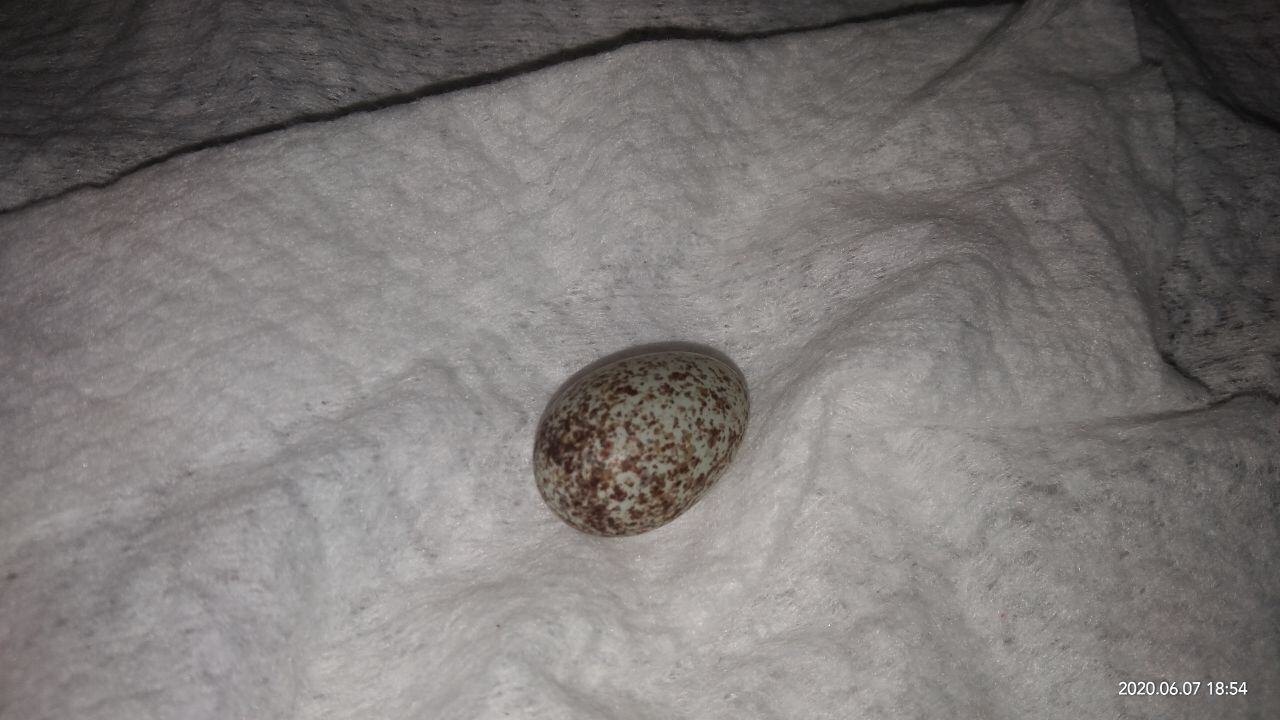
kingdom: Animalia
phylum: Chordata
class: Aves
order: Passeriformes
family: Pycnonotidae
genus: Pycnonotus
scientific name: Pycnonotus cafer
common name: Red-vented bulbul
